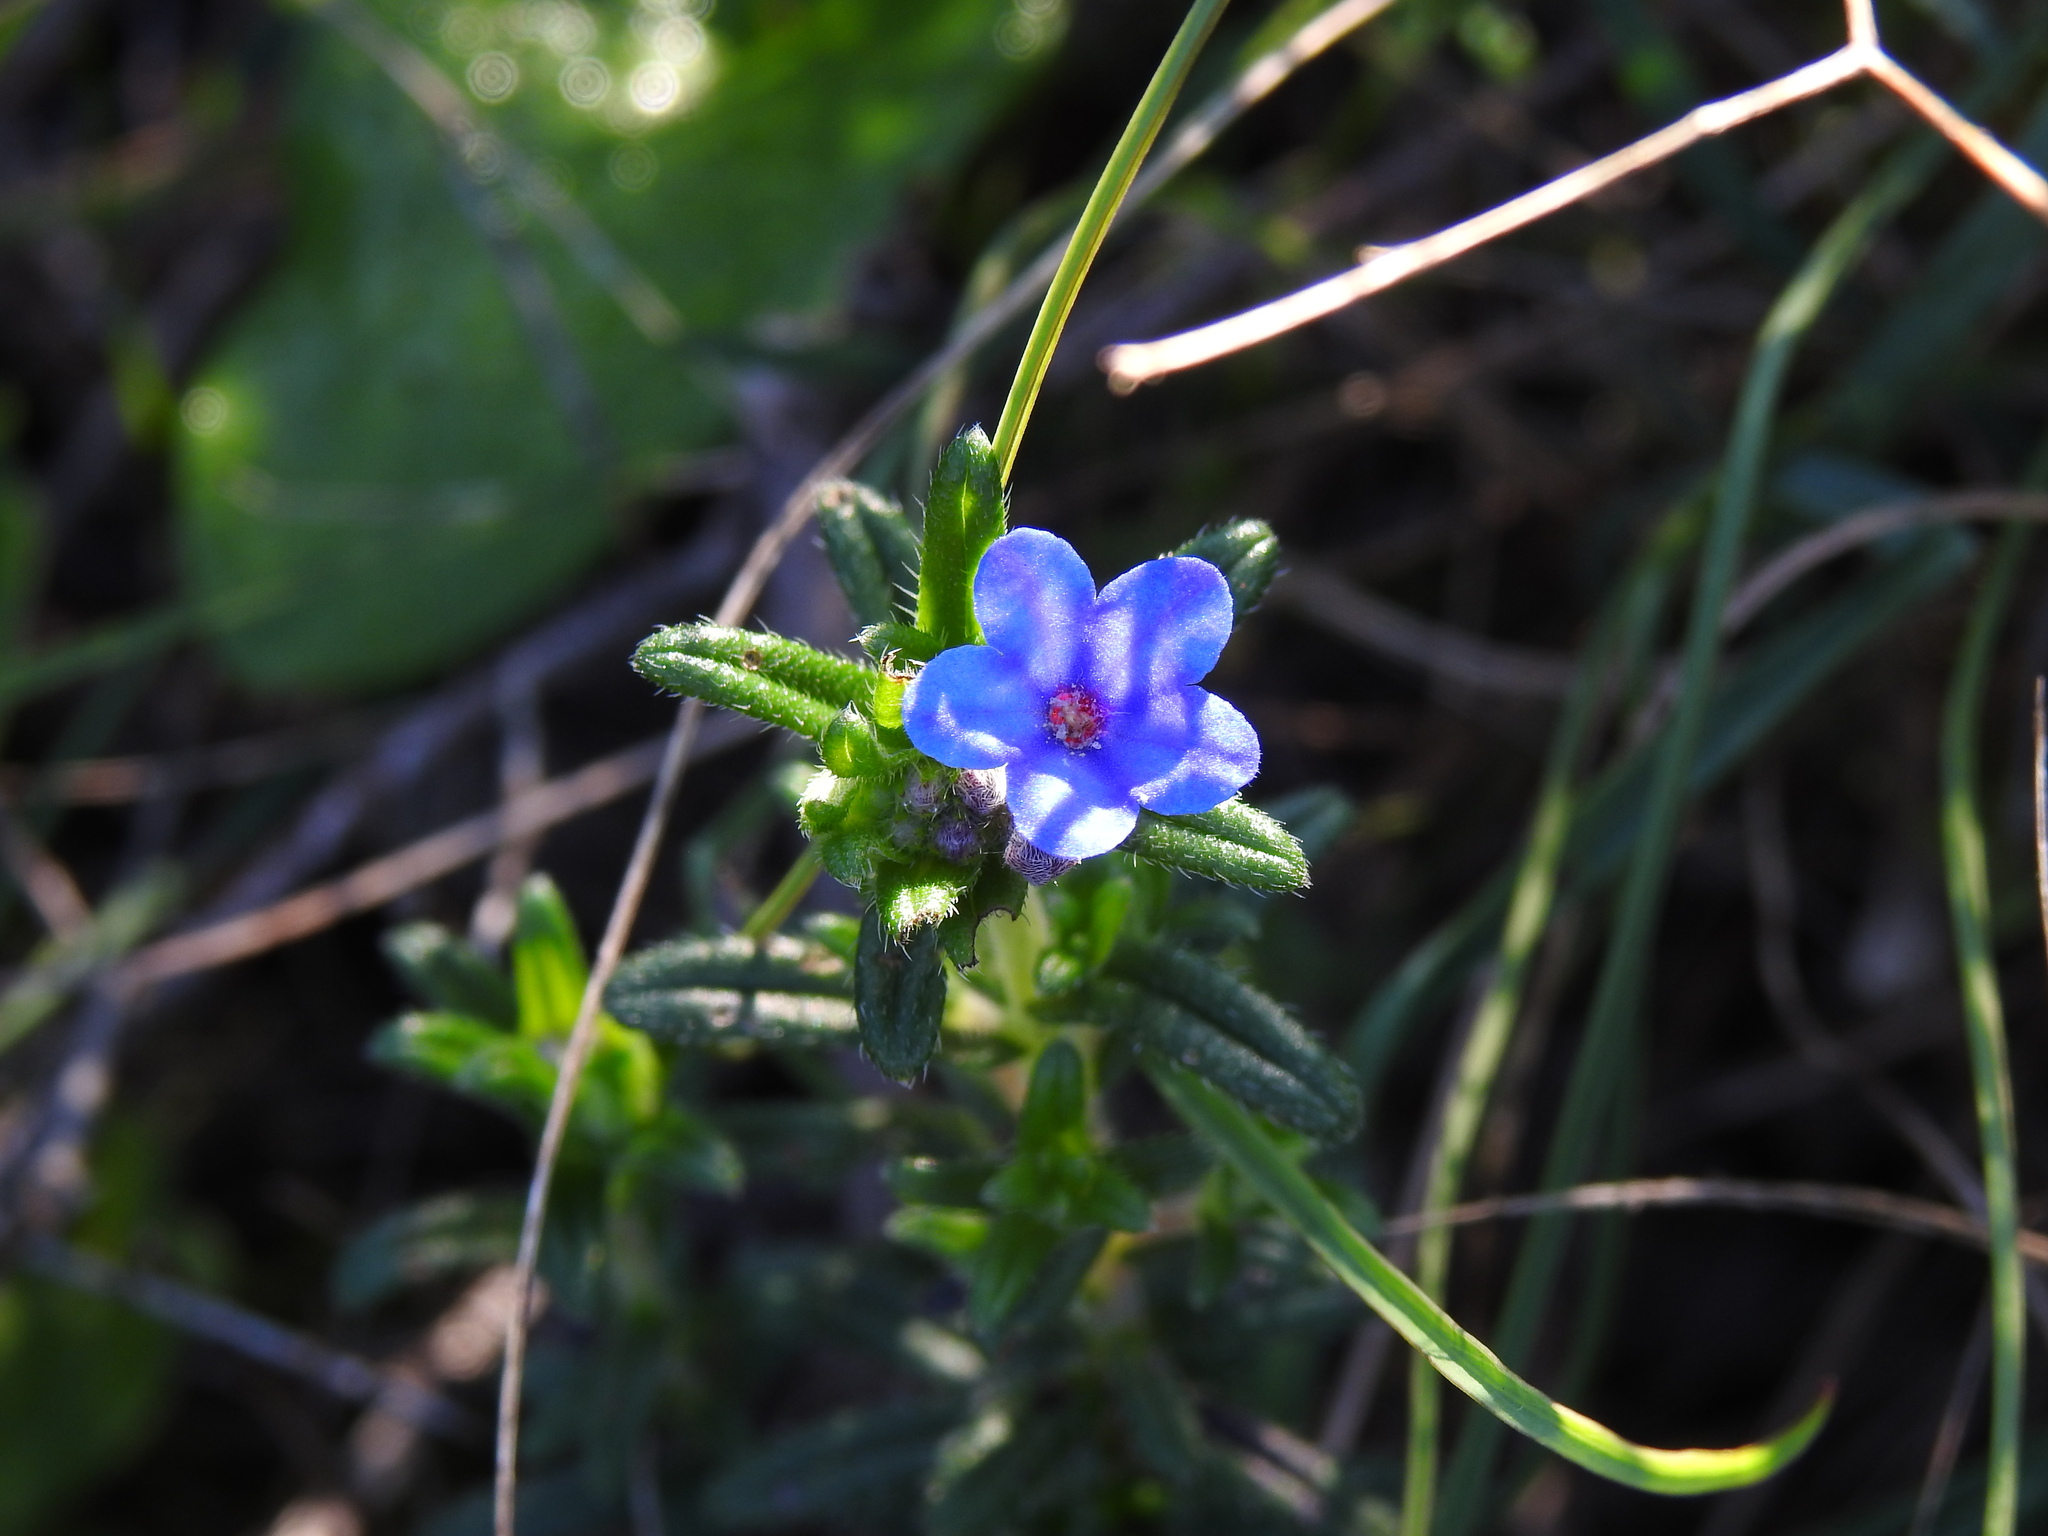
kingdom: Plantae
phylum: Tracheophyta
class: Magnoliopsida
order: Boraginales
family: Boraginaceae
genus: Glandora
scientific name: Glandora prostrata
